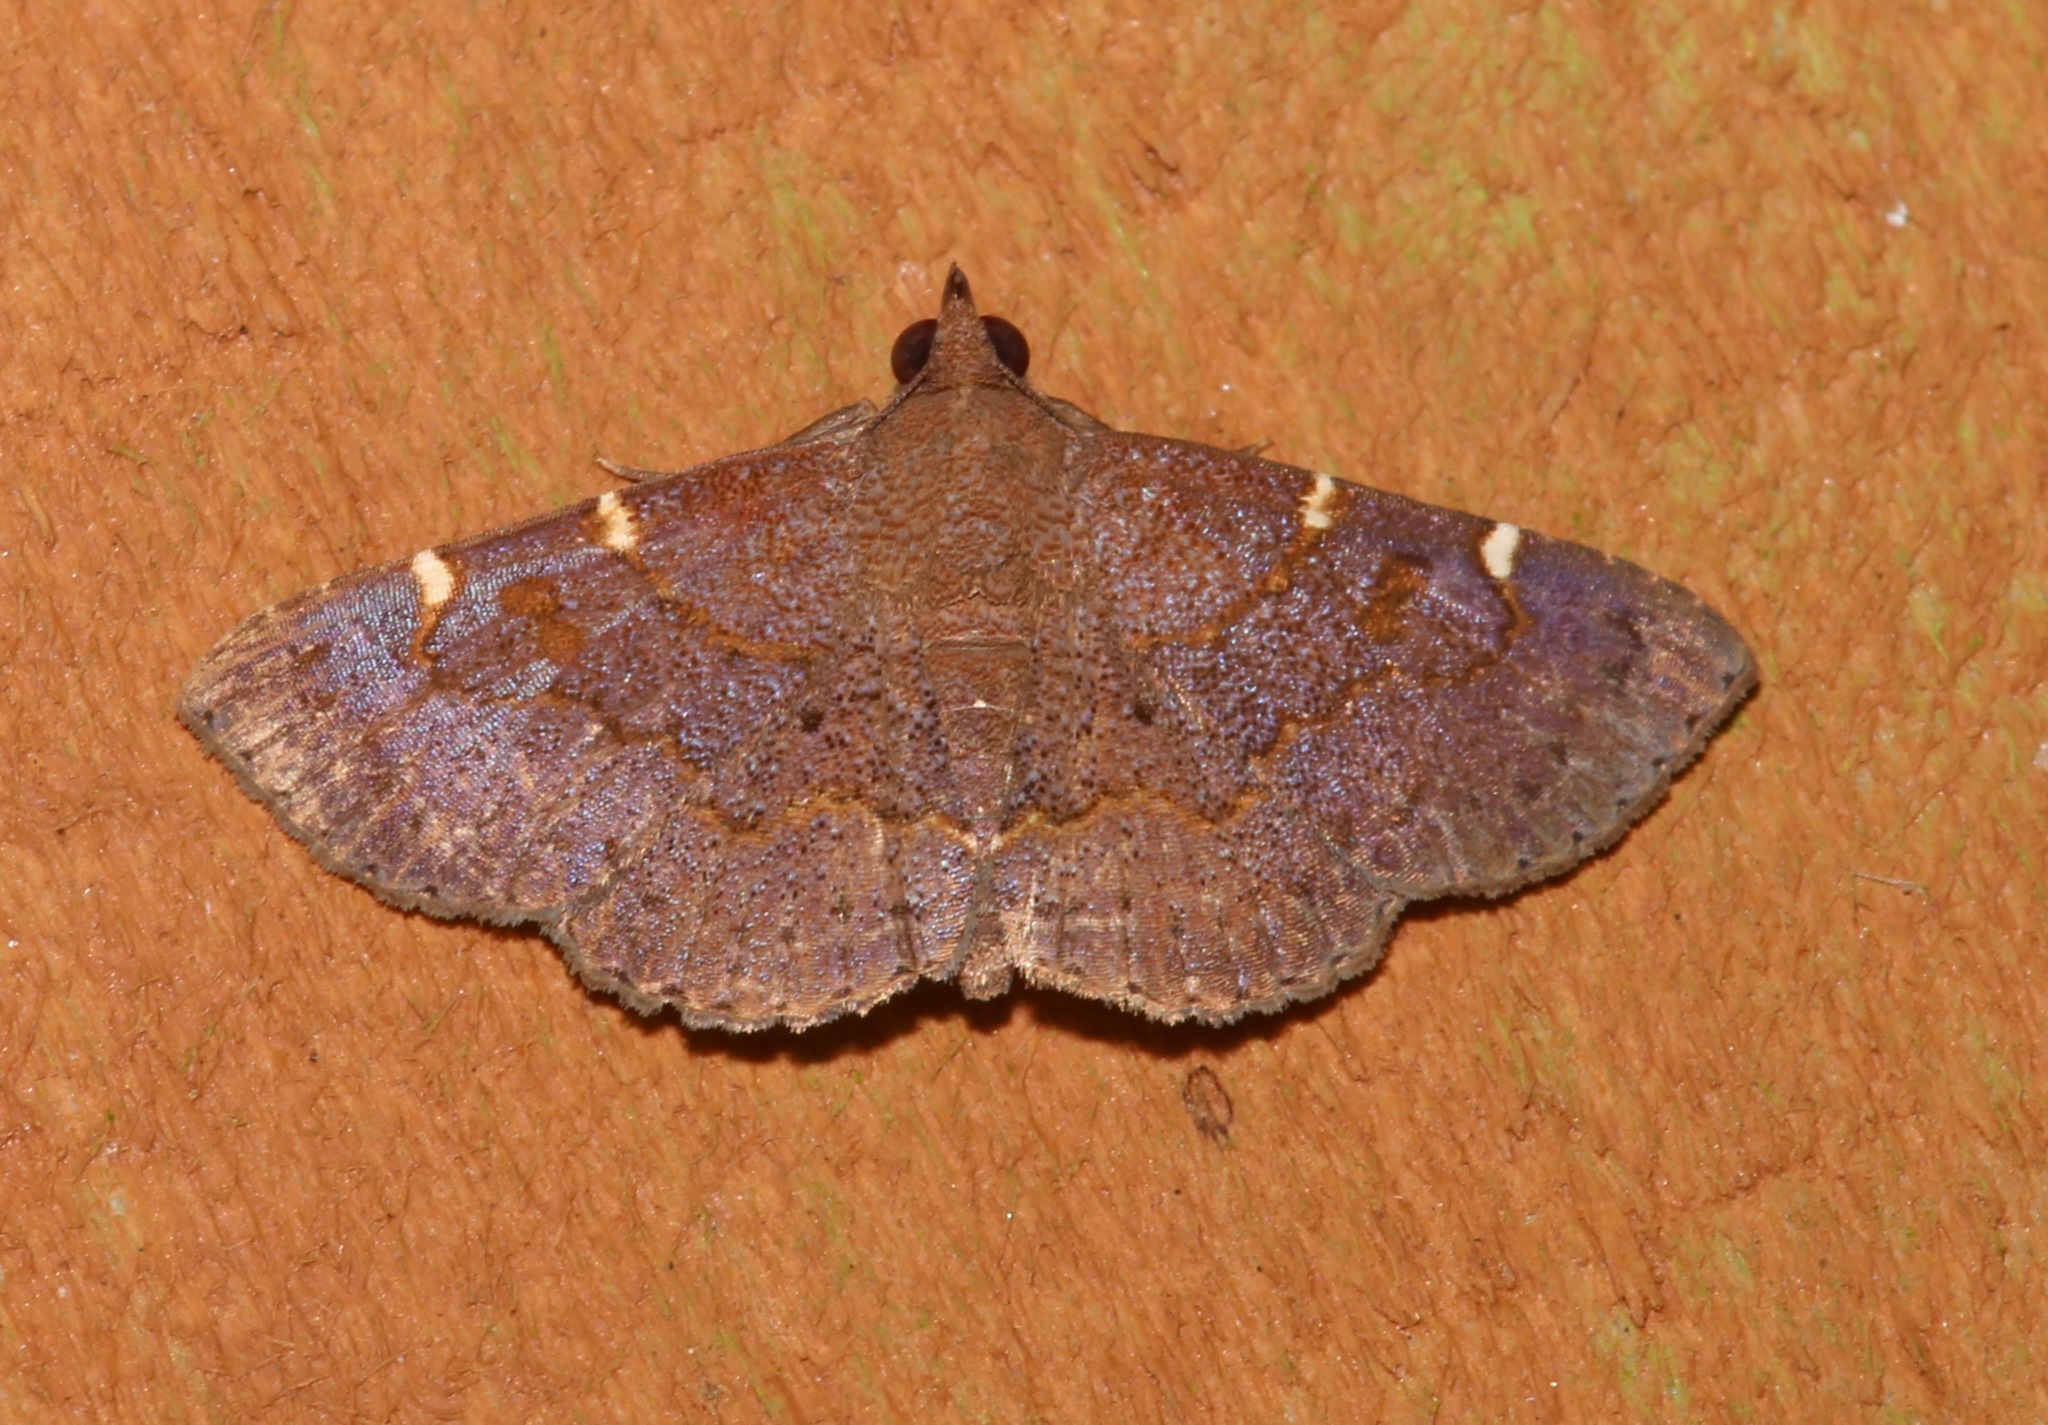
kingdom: Animalia
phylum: Arthropoda
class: Insecta
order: Lepidoptera
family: Erebidae
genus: Antiblemma
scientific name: Antiblemma perva
